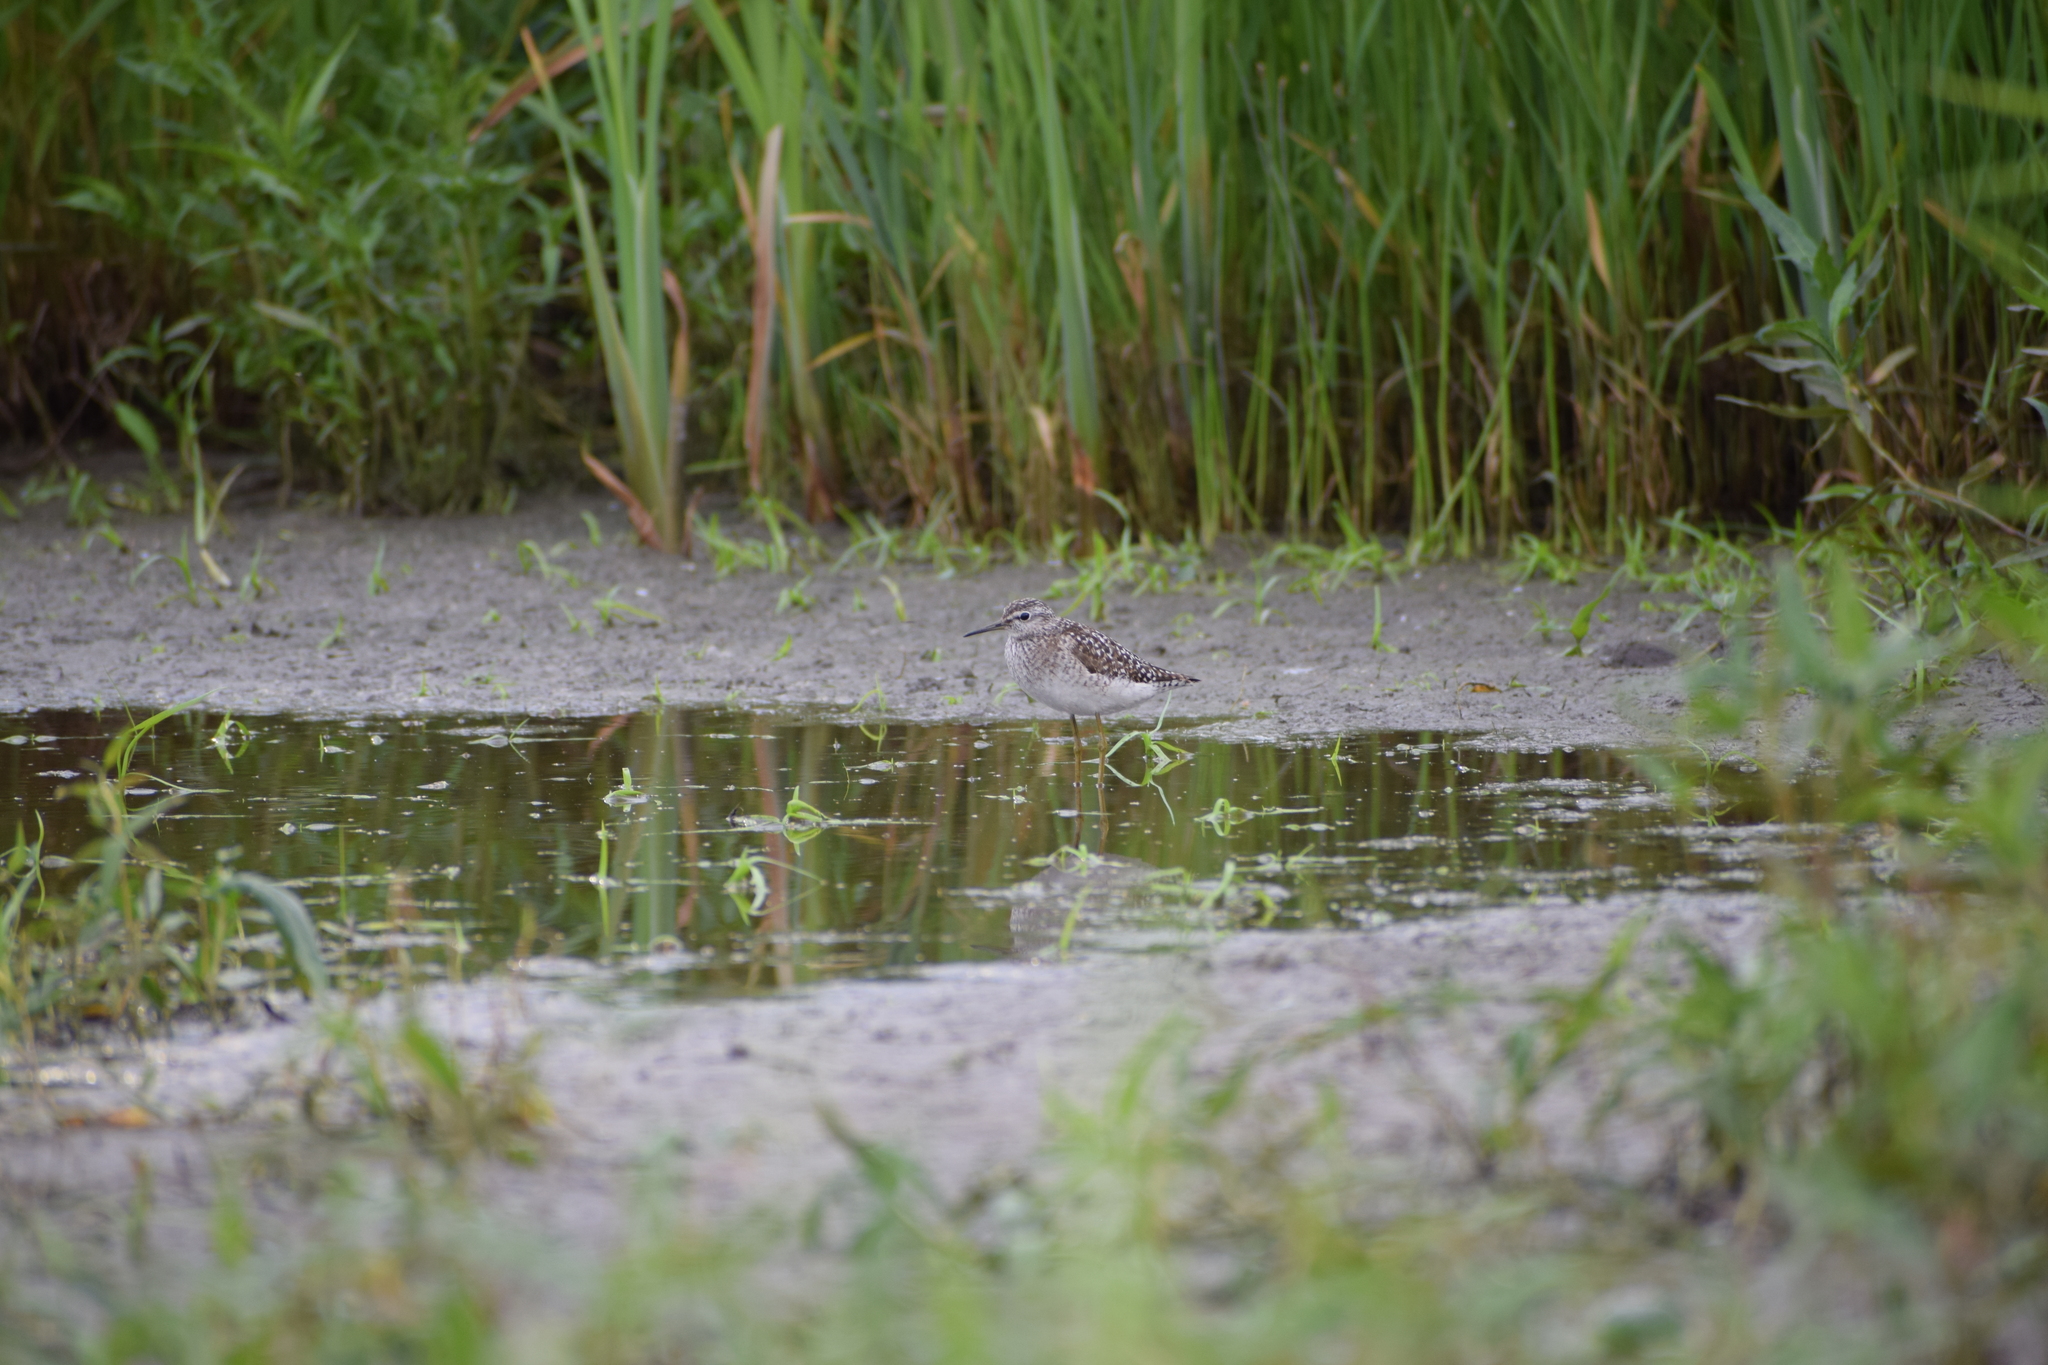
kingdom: Animalia
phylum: Chordata
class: Aves
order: Charadriiformes
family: Scolopacidae
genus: Tringa
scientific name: Tringa glareola
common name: Wood sandpiper
